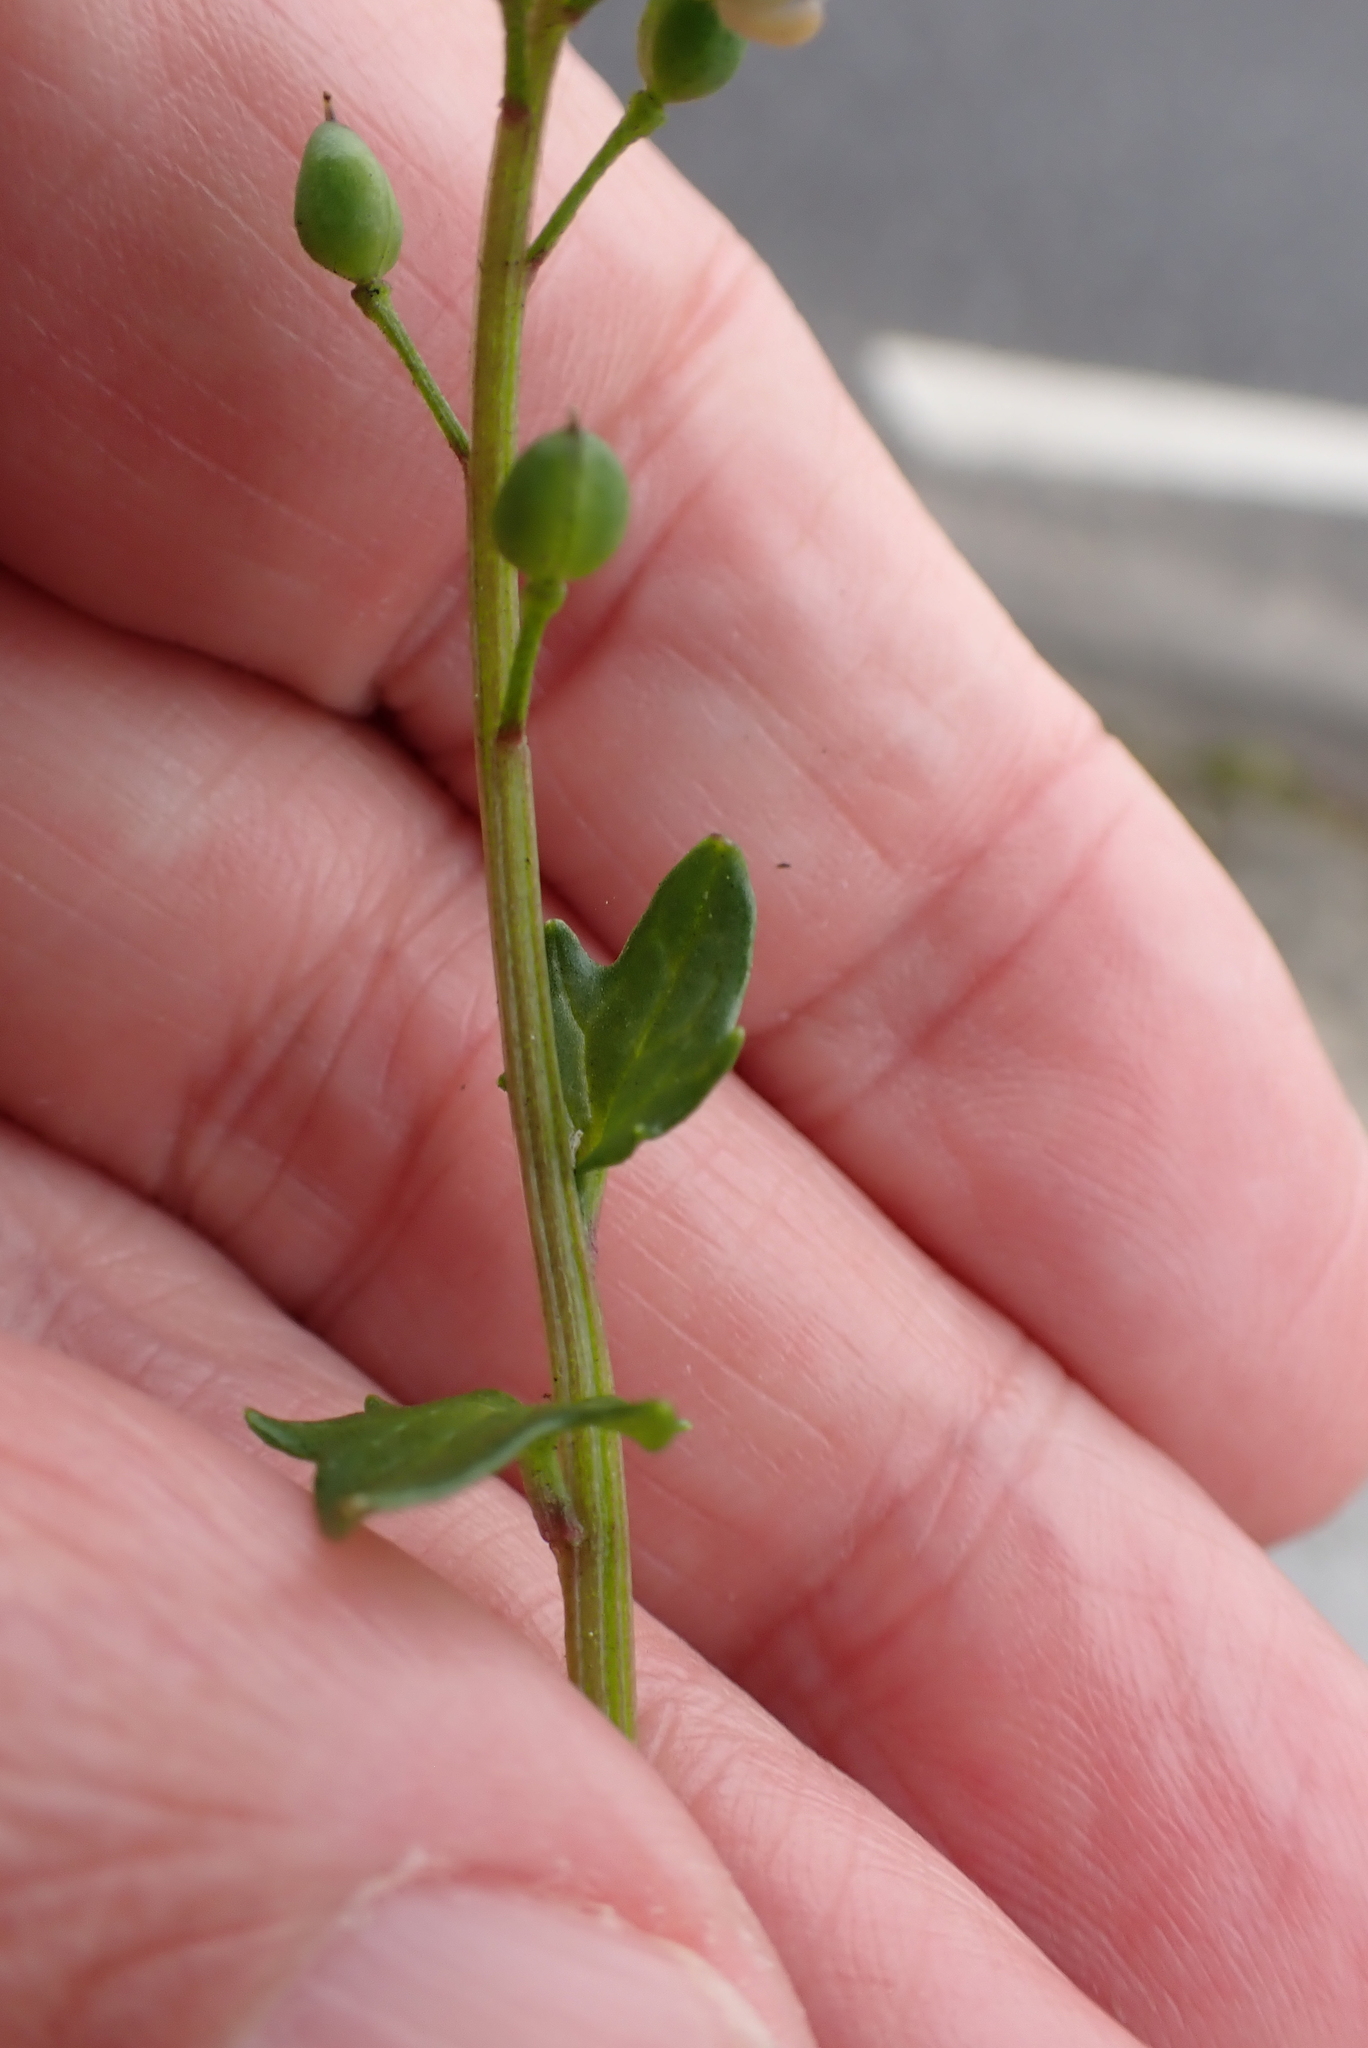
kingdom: Plantae
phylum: Tracheophyta
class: Magnoliopsida
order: Brassicales
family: Brassicaceae
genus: Cochlearia
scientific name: Cochlearia danica
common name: Early scurvygrass
